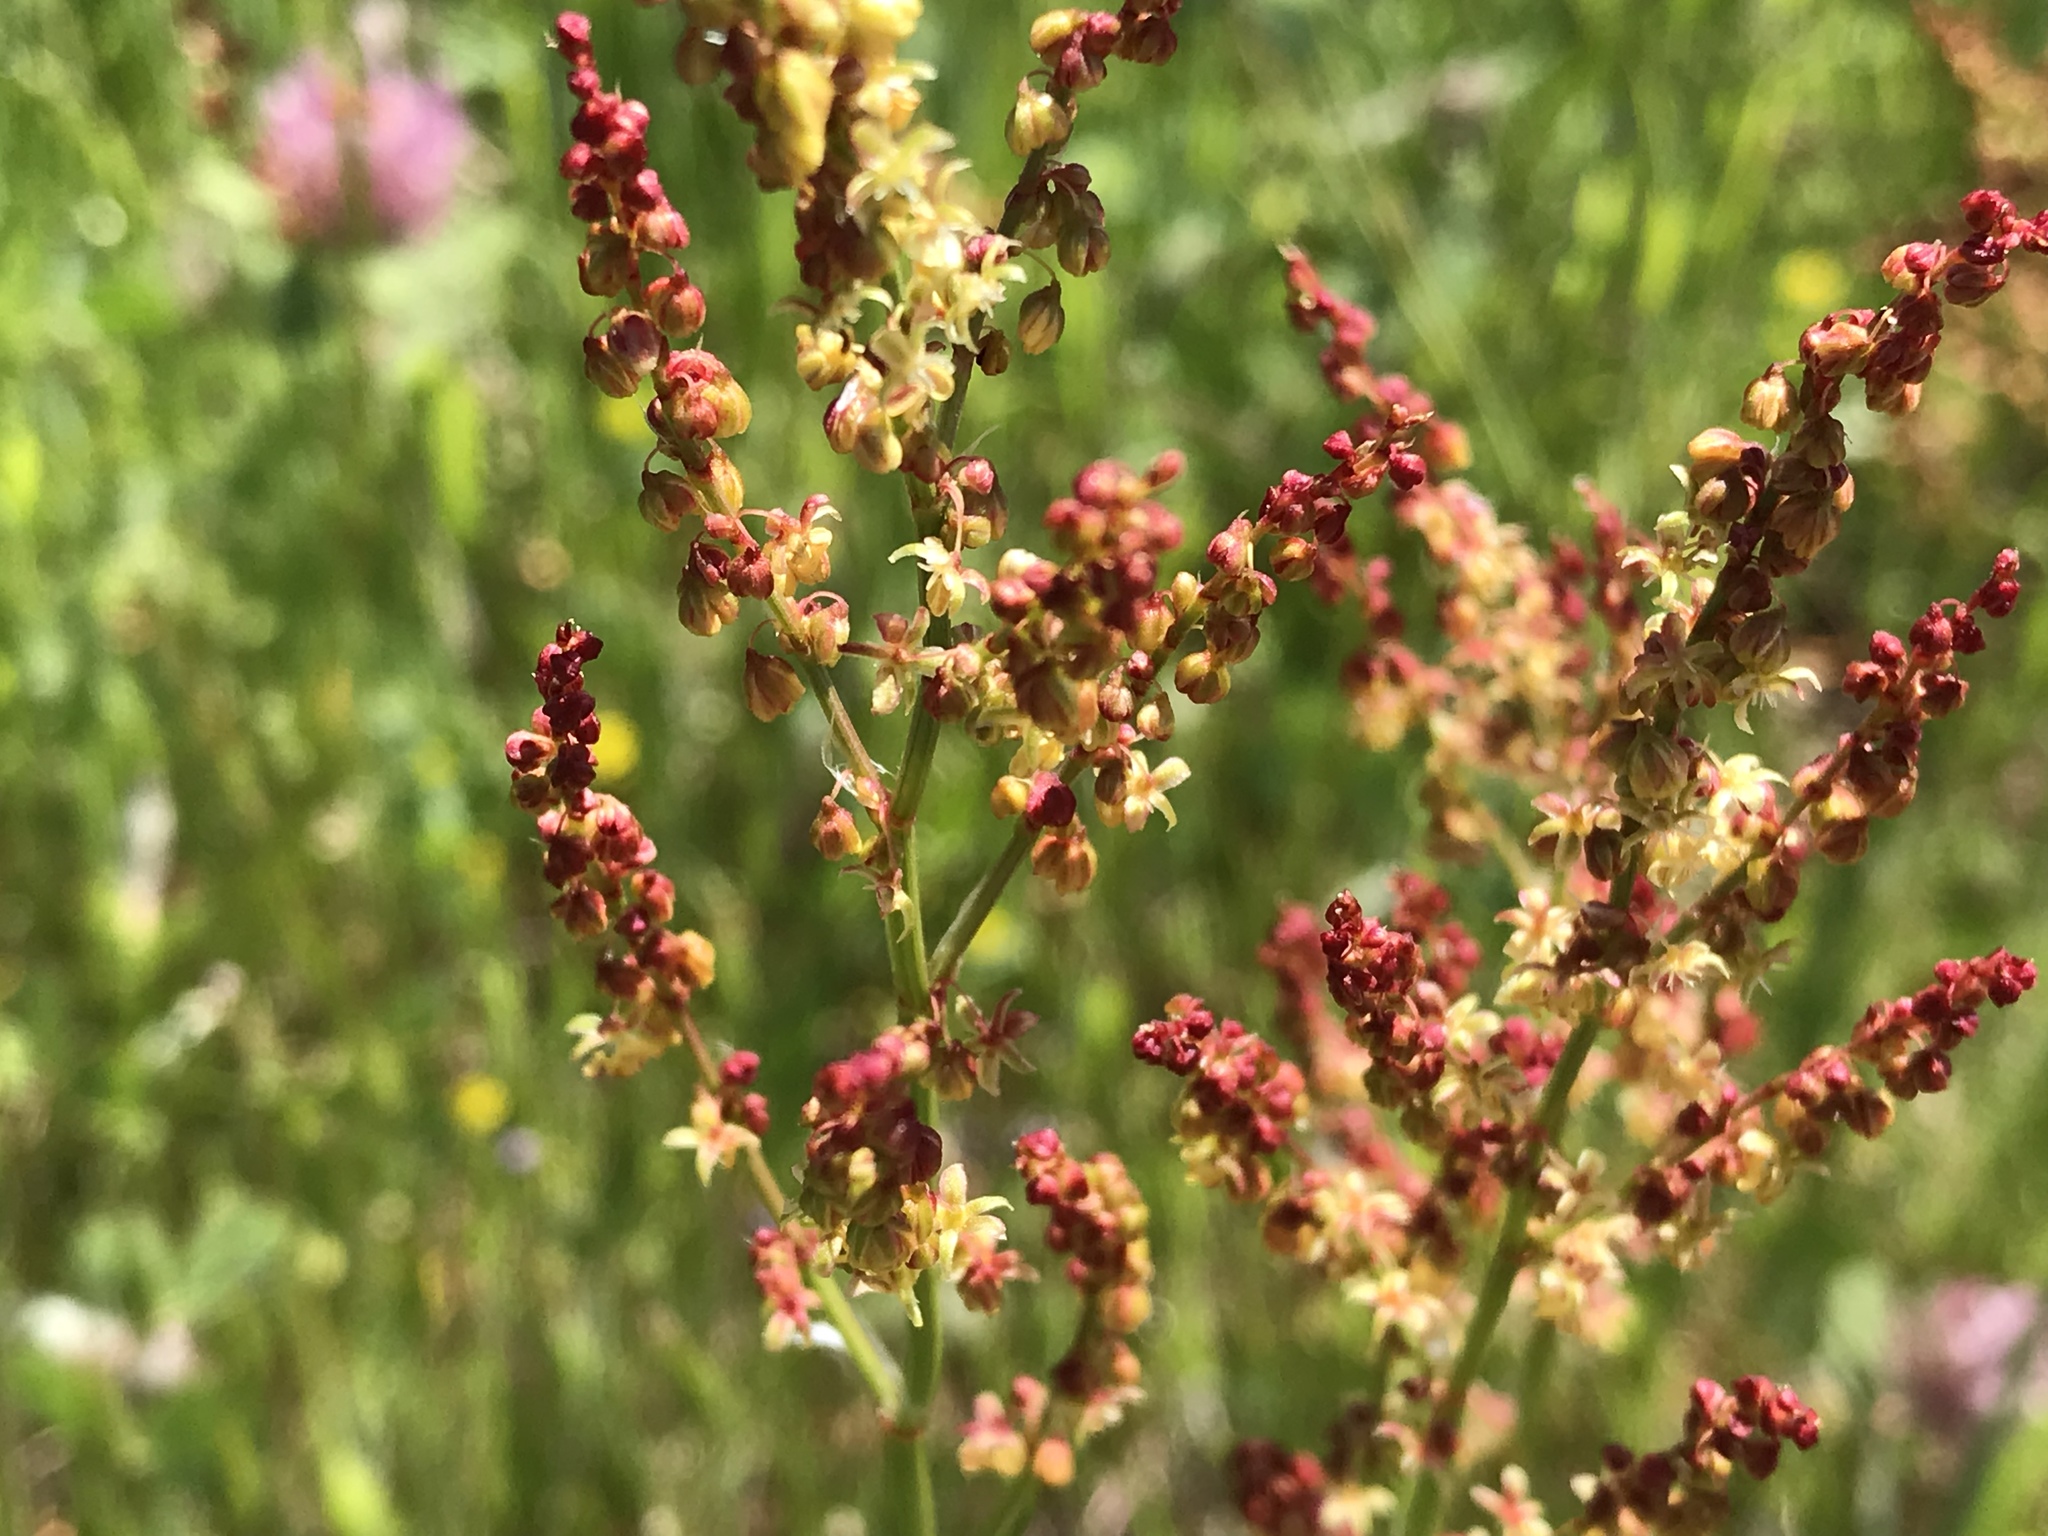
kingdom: Plantae
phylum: Tracheophyta
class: Magnoliopsida
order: Caryophyllales
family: Polygonaceae
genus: Rumex
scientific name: Rumex acetosella
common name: Common sheep sorrel
